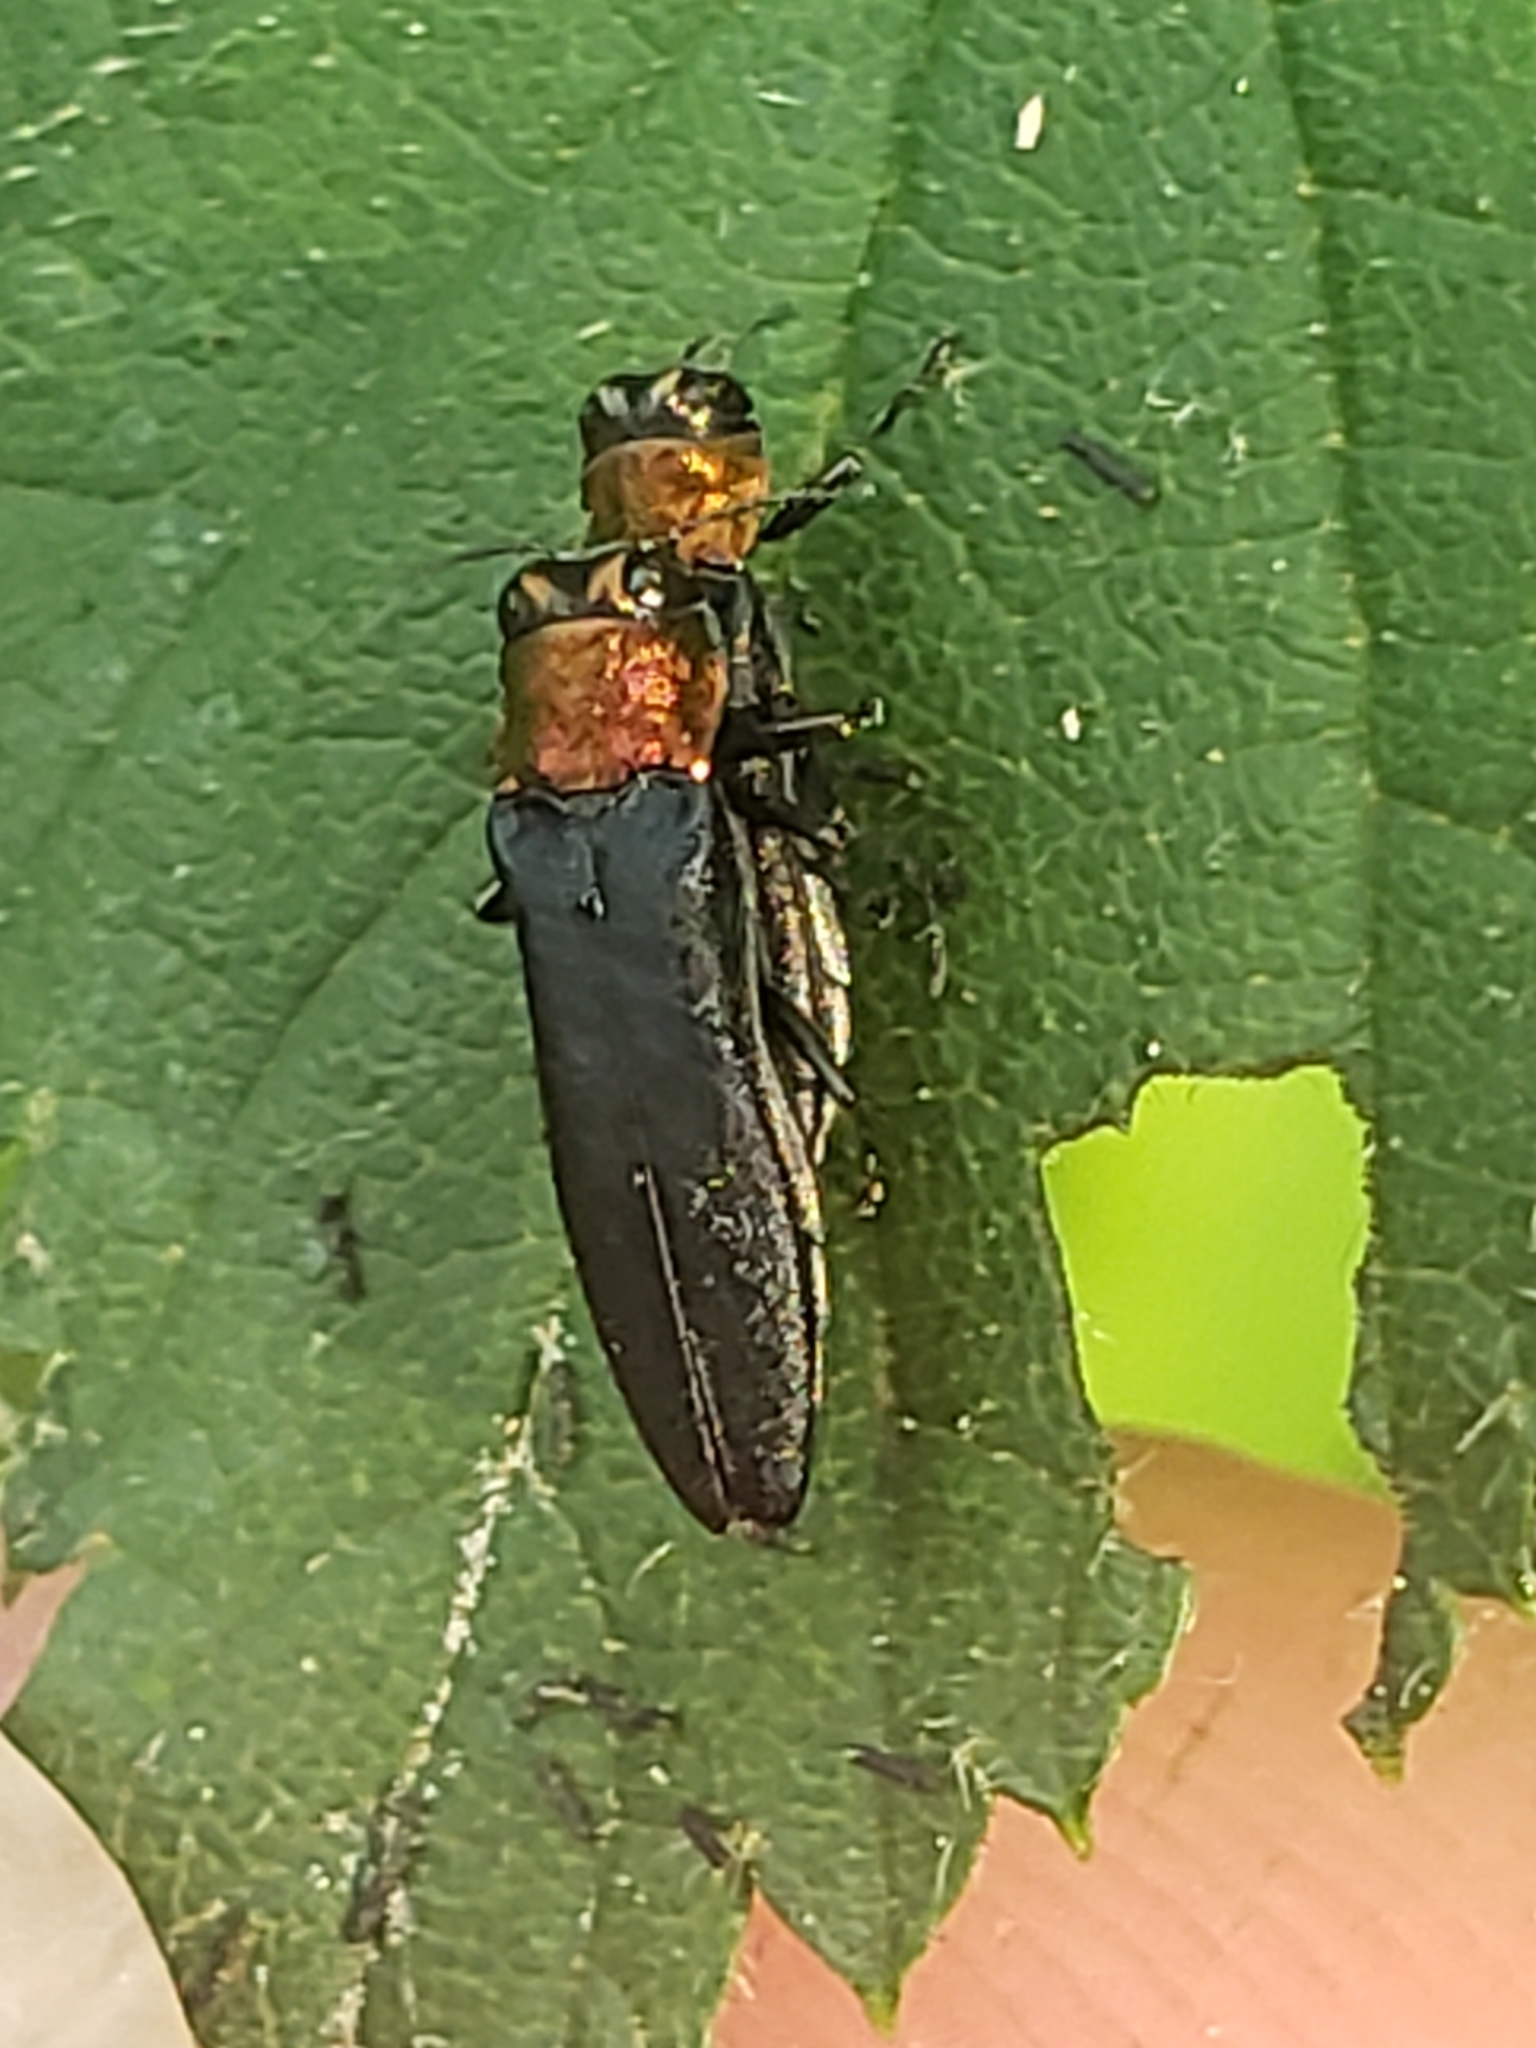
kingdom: Animalia
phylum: Arthropoda
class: Insecta
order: Coleoptera
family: Buprestidae
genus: Agrilus
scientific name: Agrilus ruficollis
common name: Red-necked cane borer beetle
